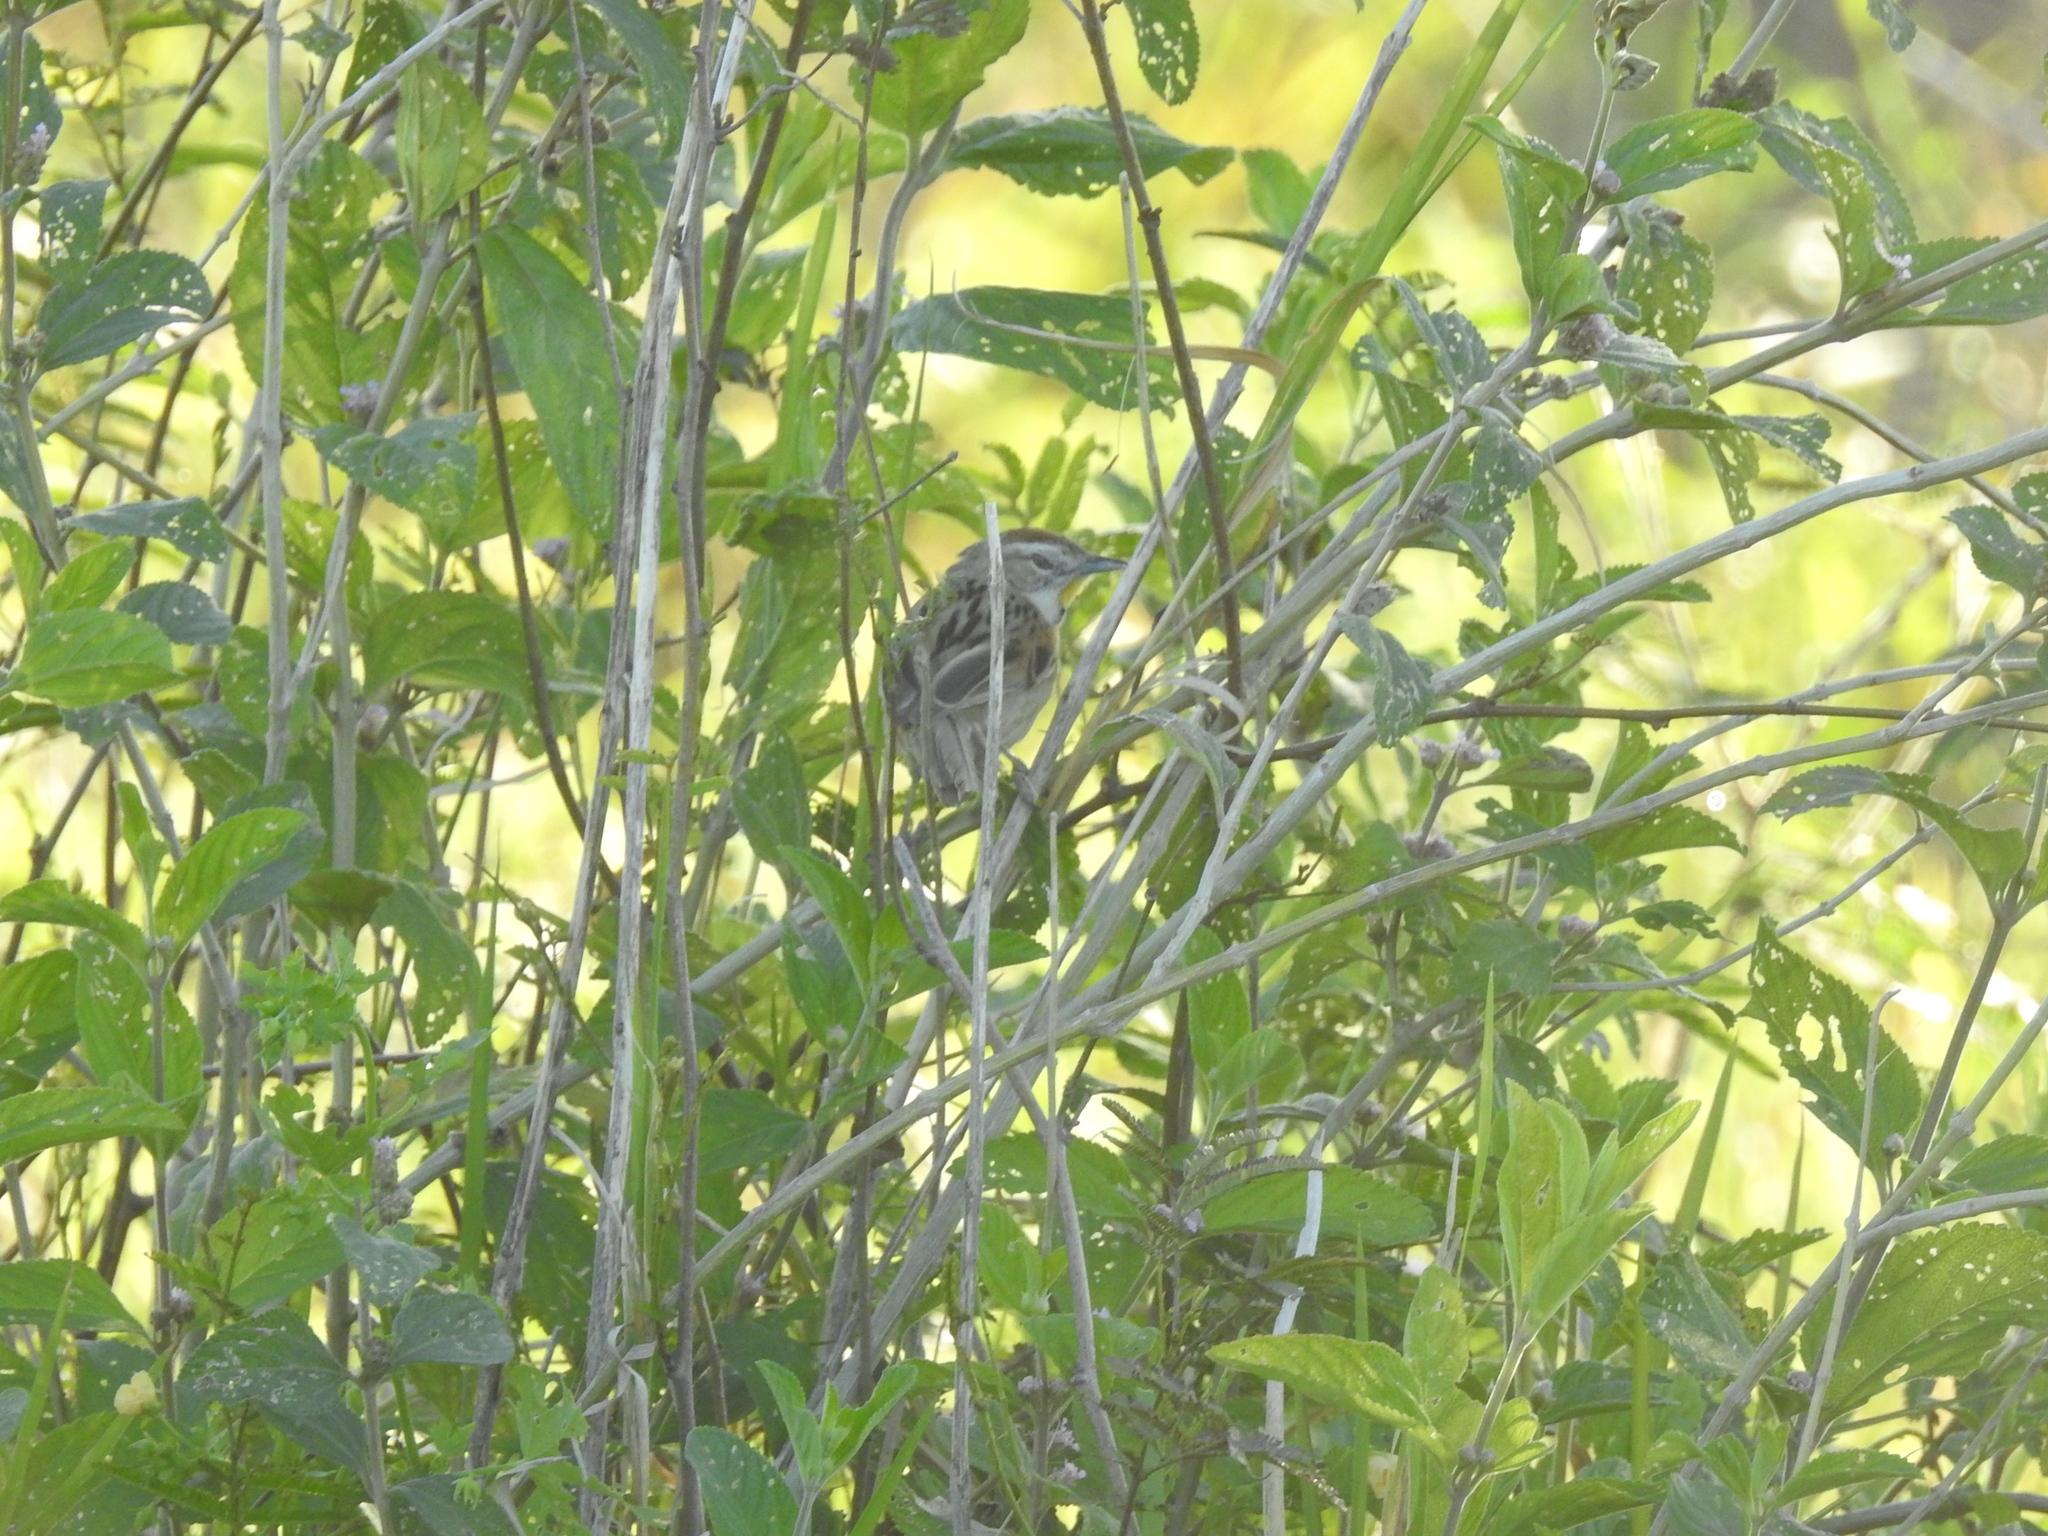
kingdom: Animalia
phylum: Chordata
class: Aves
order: Passeriformes
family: Furnariidae
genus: Schoeniophylax
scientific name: Schoeniophylax phryganophilus
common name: Chotoy spinetail
